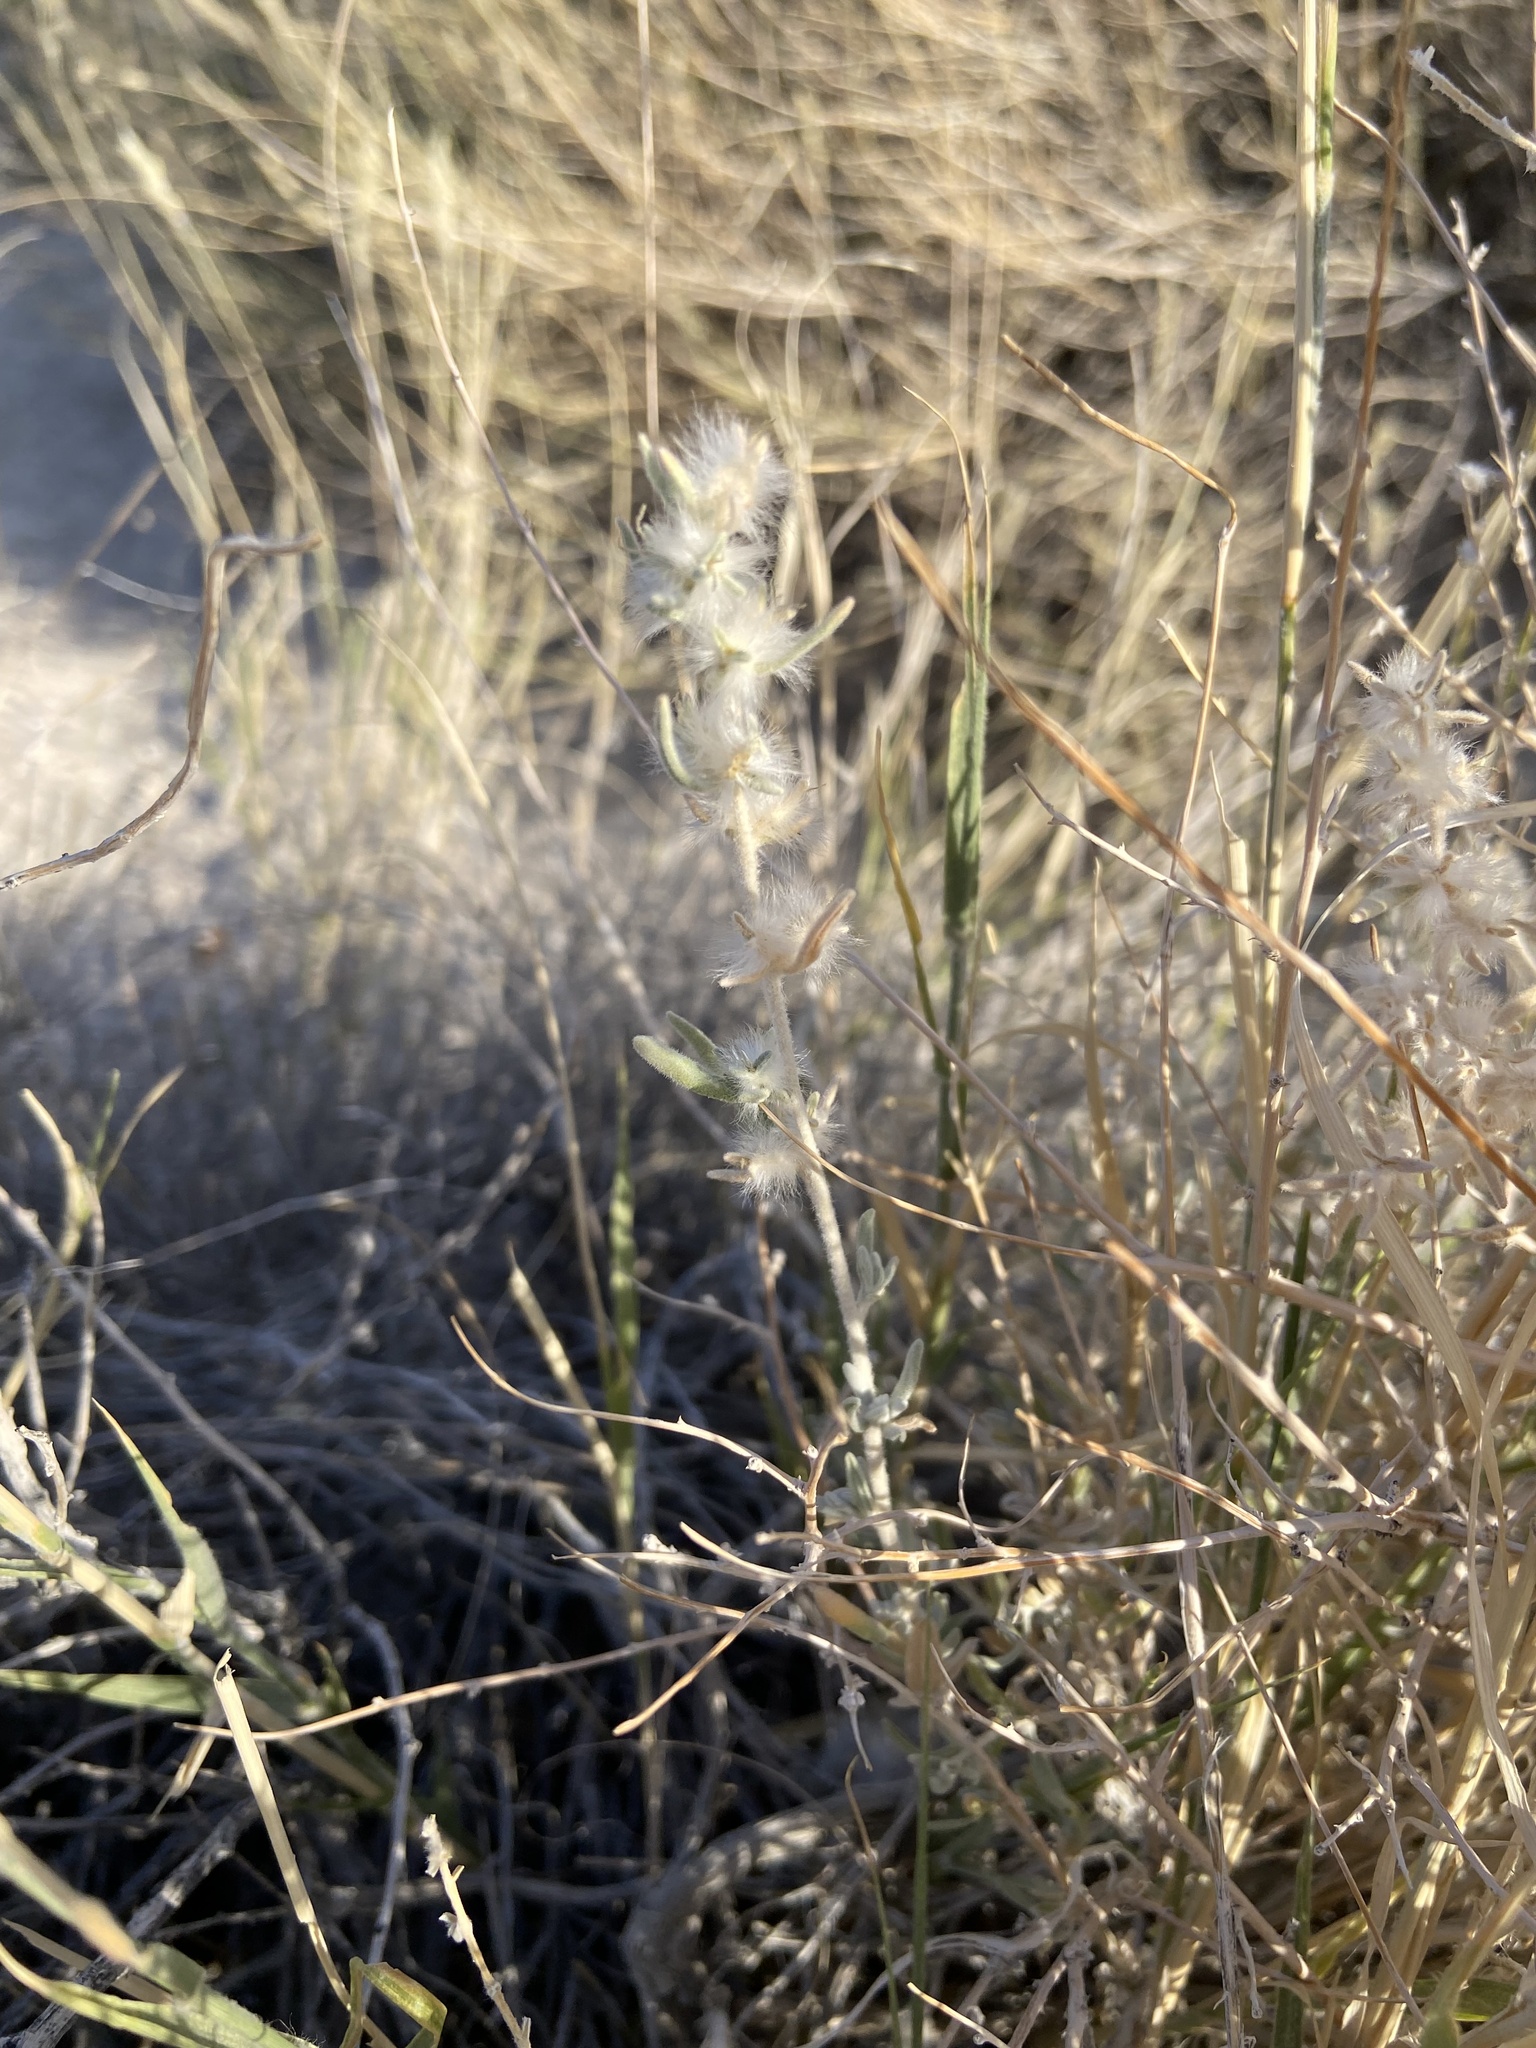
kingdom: Plantae
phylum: Tracheophyta
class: Magnoliopsida
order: Caryophyllales
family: Amaranthaceae
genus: Krascheninnikovia
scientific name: Krascheninnikovia lanata
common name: Winterfat
